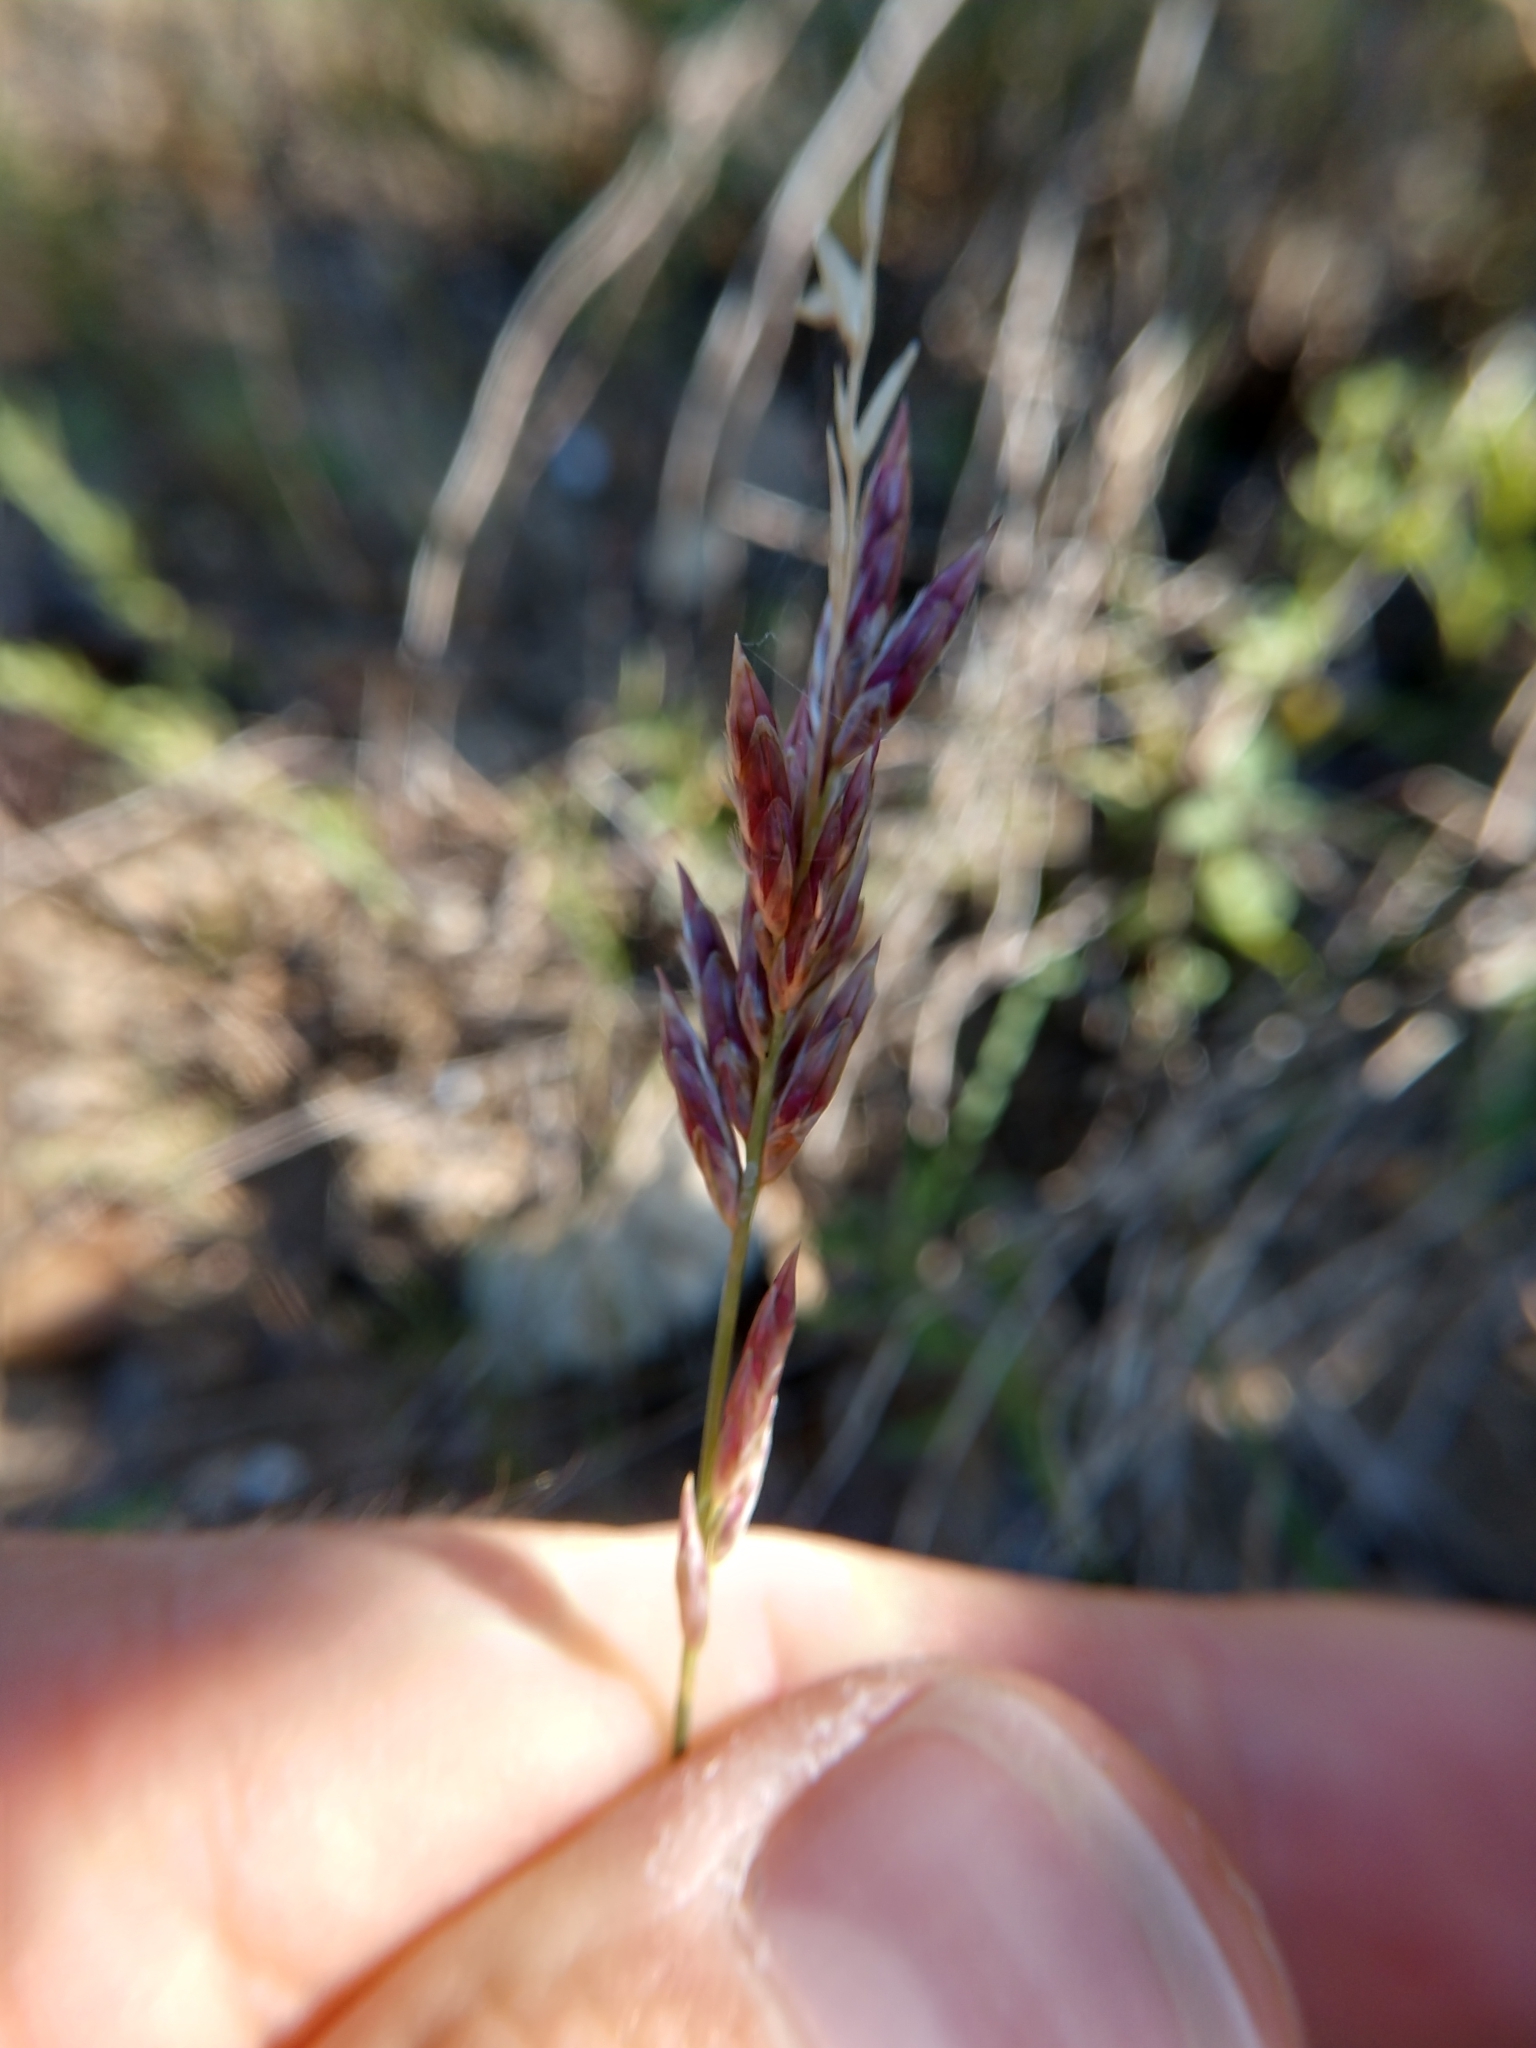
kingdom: Plantae
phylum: Tracheophyta
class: Liliopsida
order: Poales
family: Poaceae
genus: Tridentopsis
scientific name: Tridentopsis mutica
